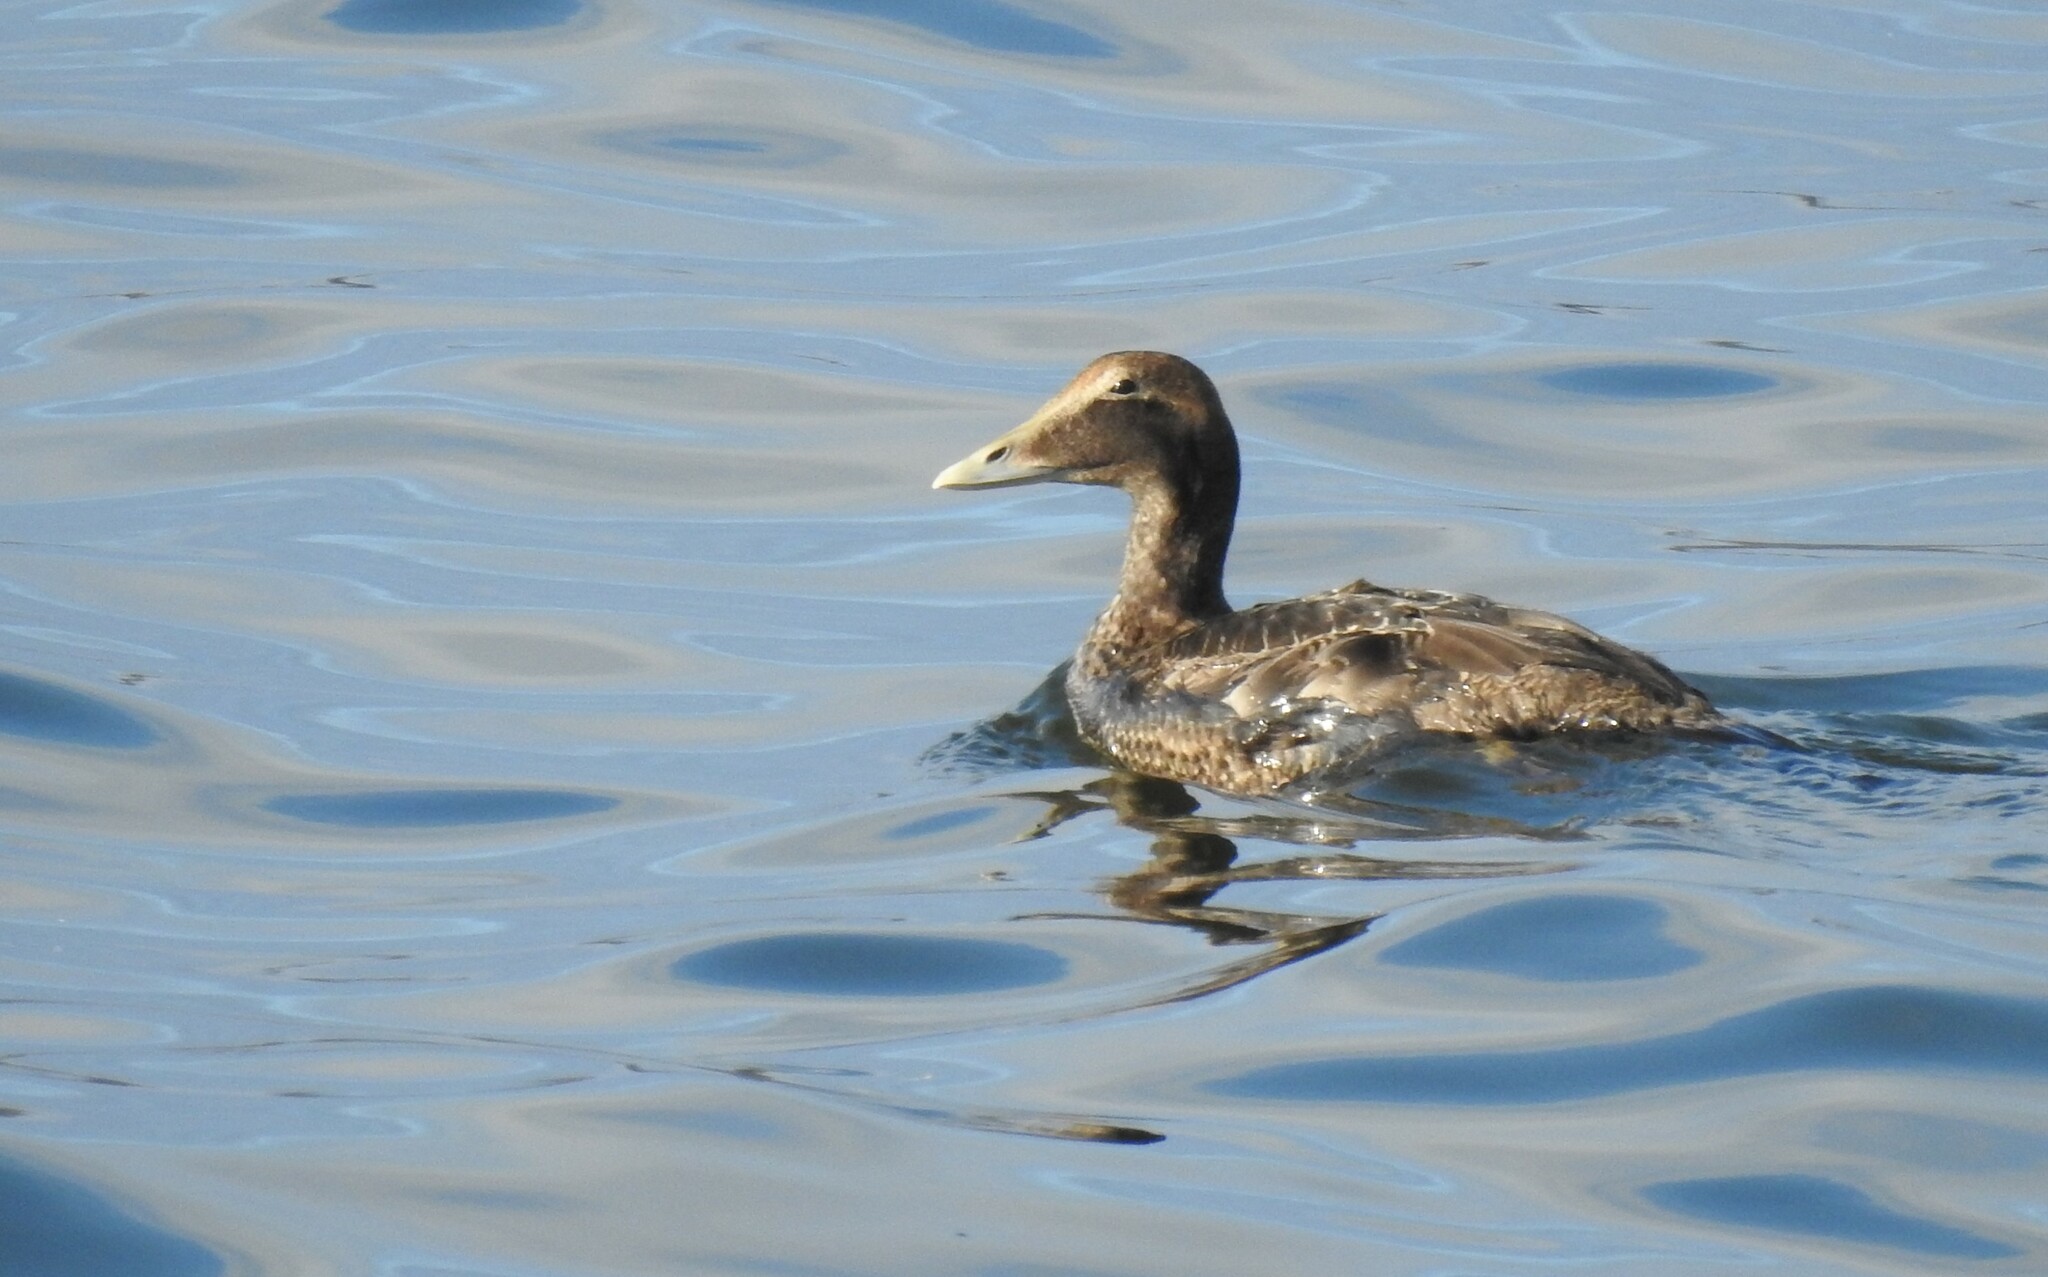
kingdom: Animalia
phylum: Chordata
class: Aves
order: Anseriformes
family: Anatidae
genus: Somateria
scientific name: Somateria mollissima
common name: Common eider
